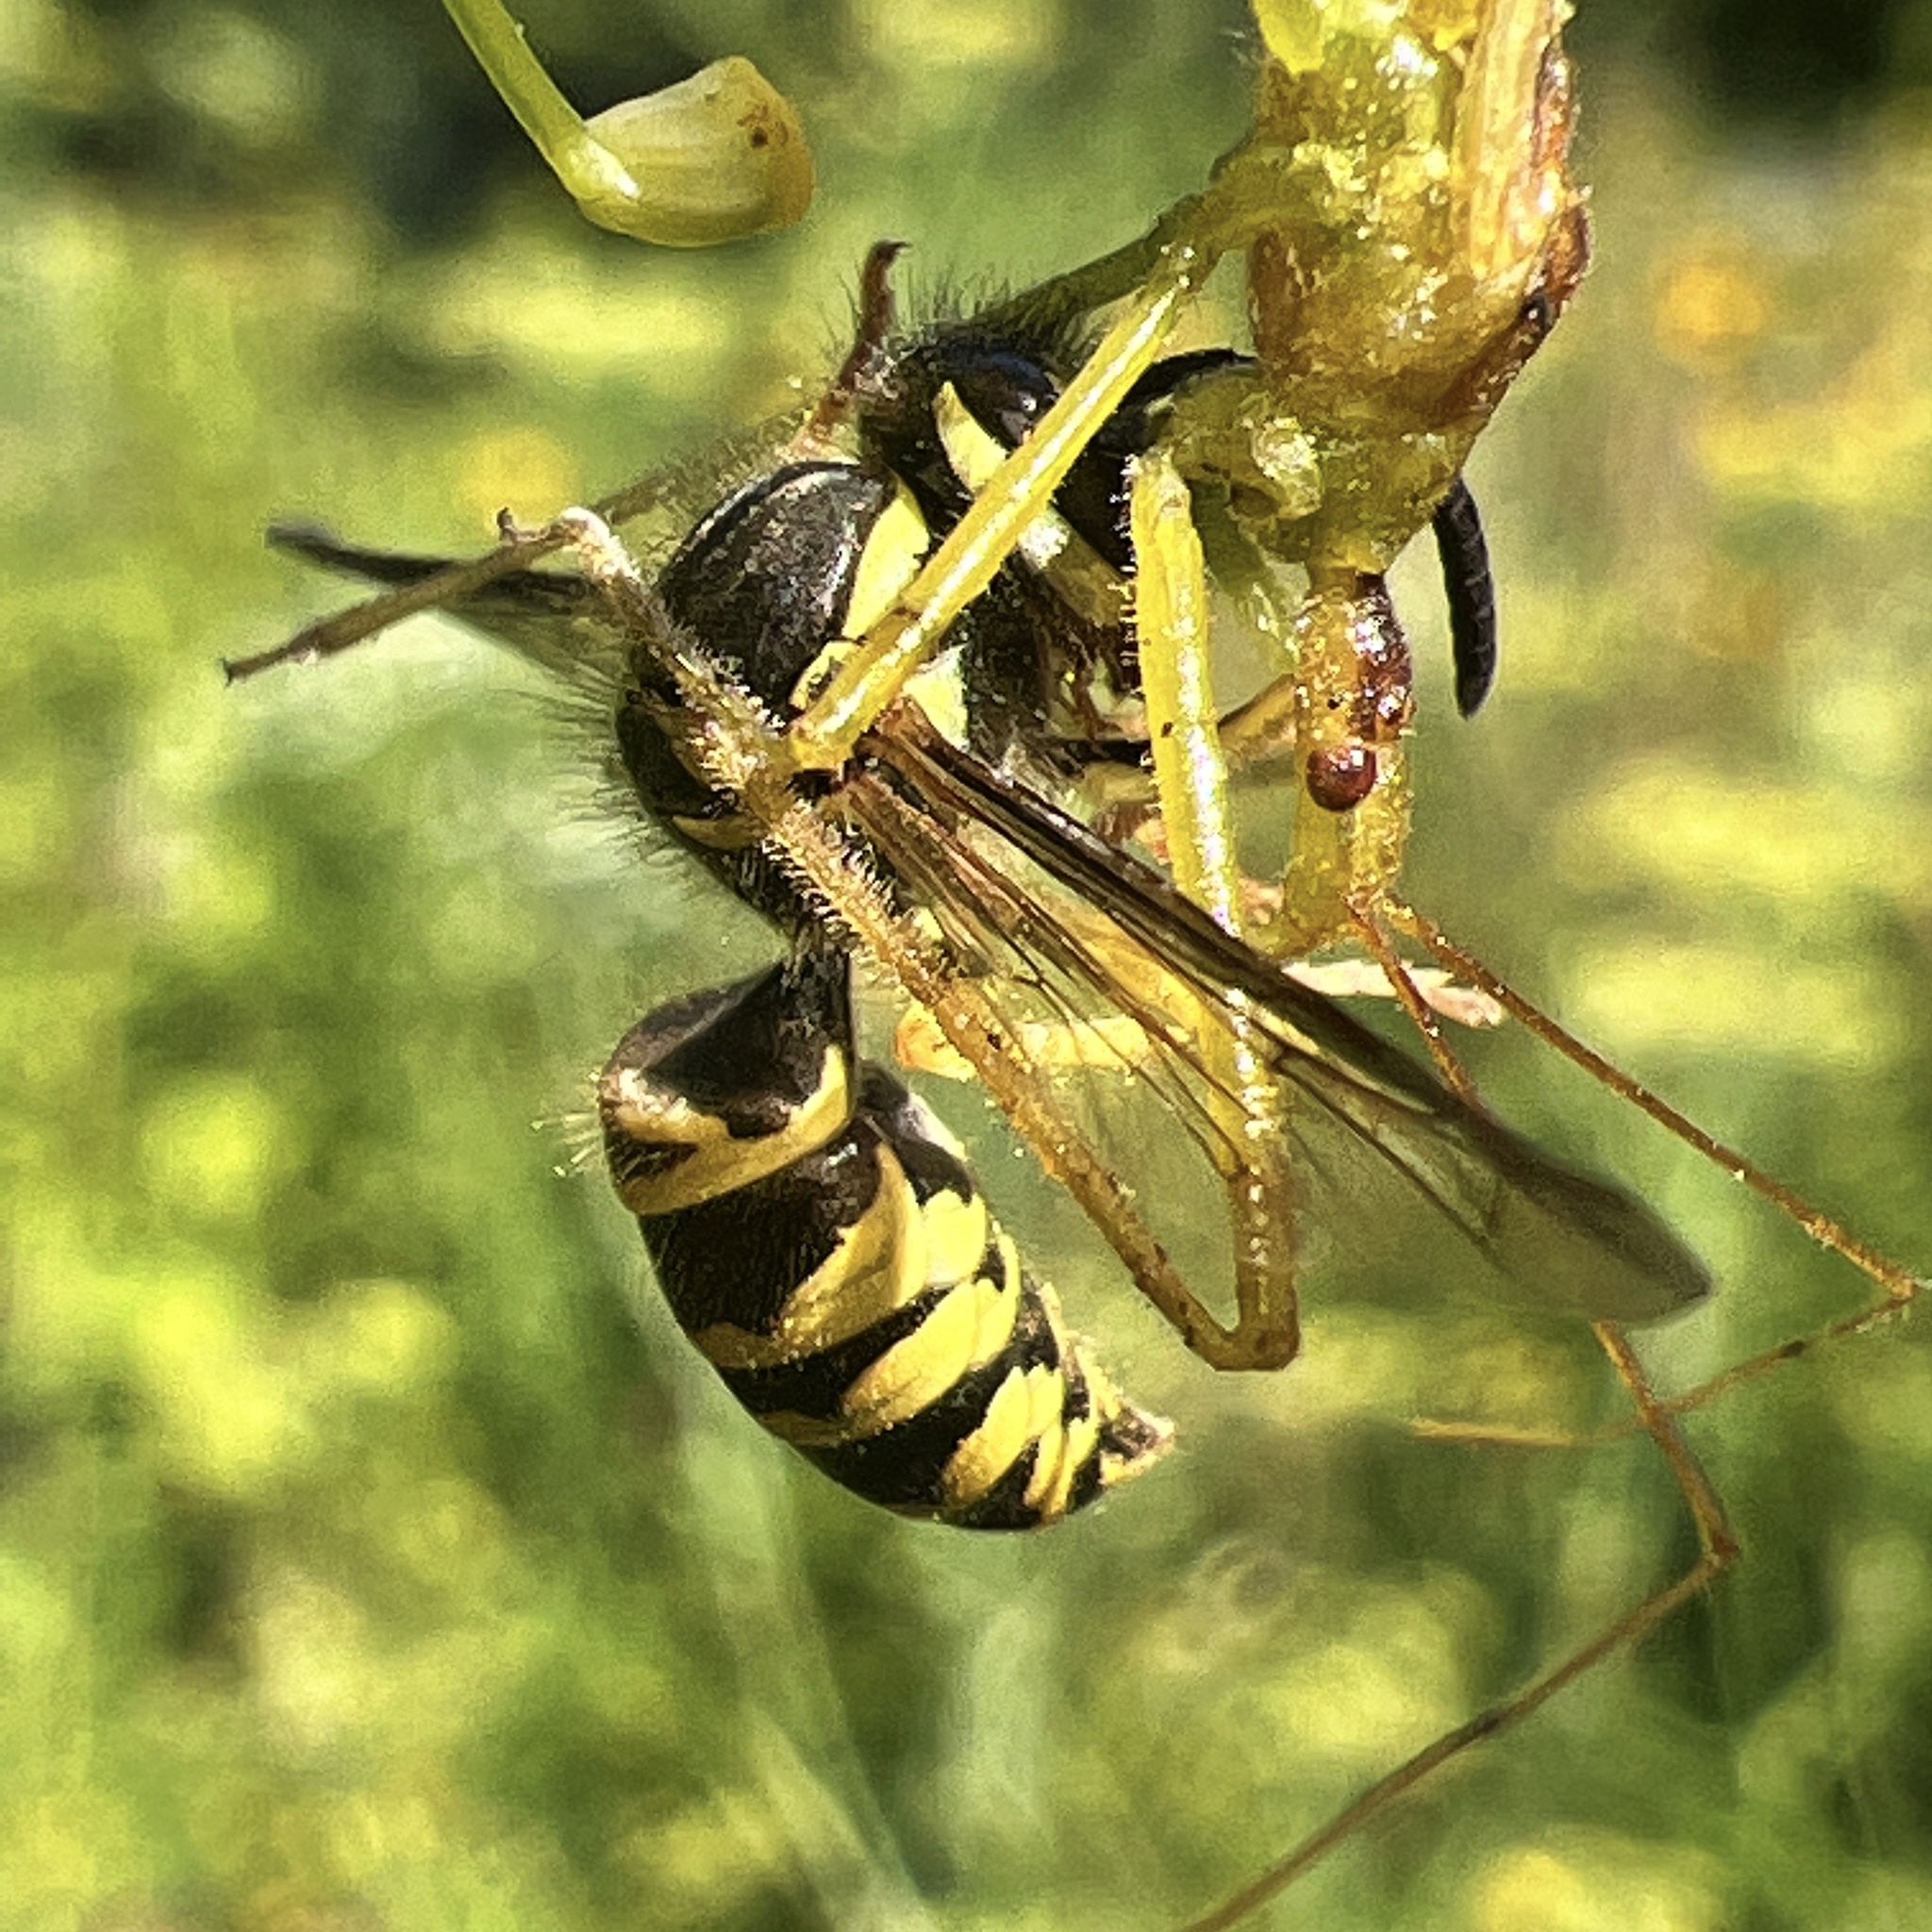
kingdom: Animalia
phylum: Arthropoda
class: Insecta
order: Hymenoptera
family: Vespidae
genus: Vespula
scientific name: Vespula vidua
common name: Widow yellowjacket
